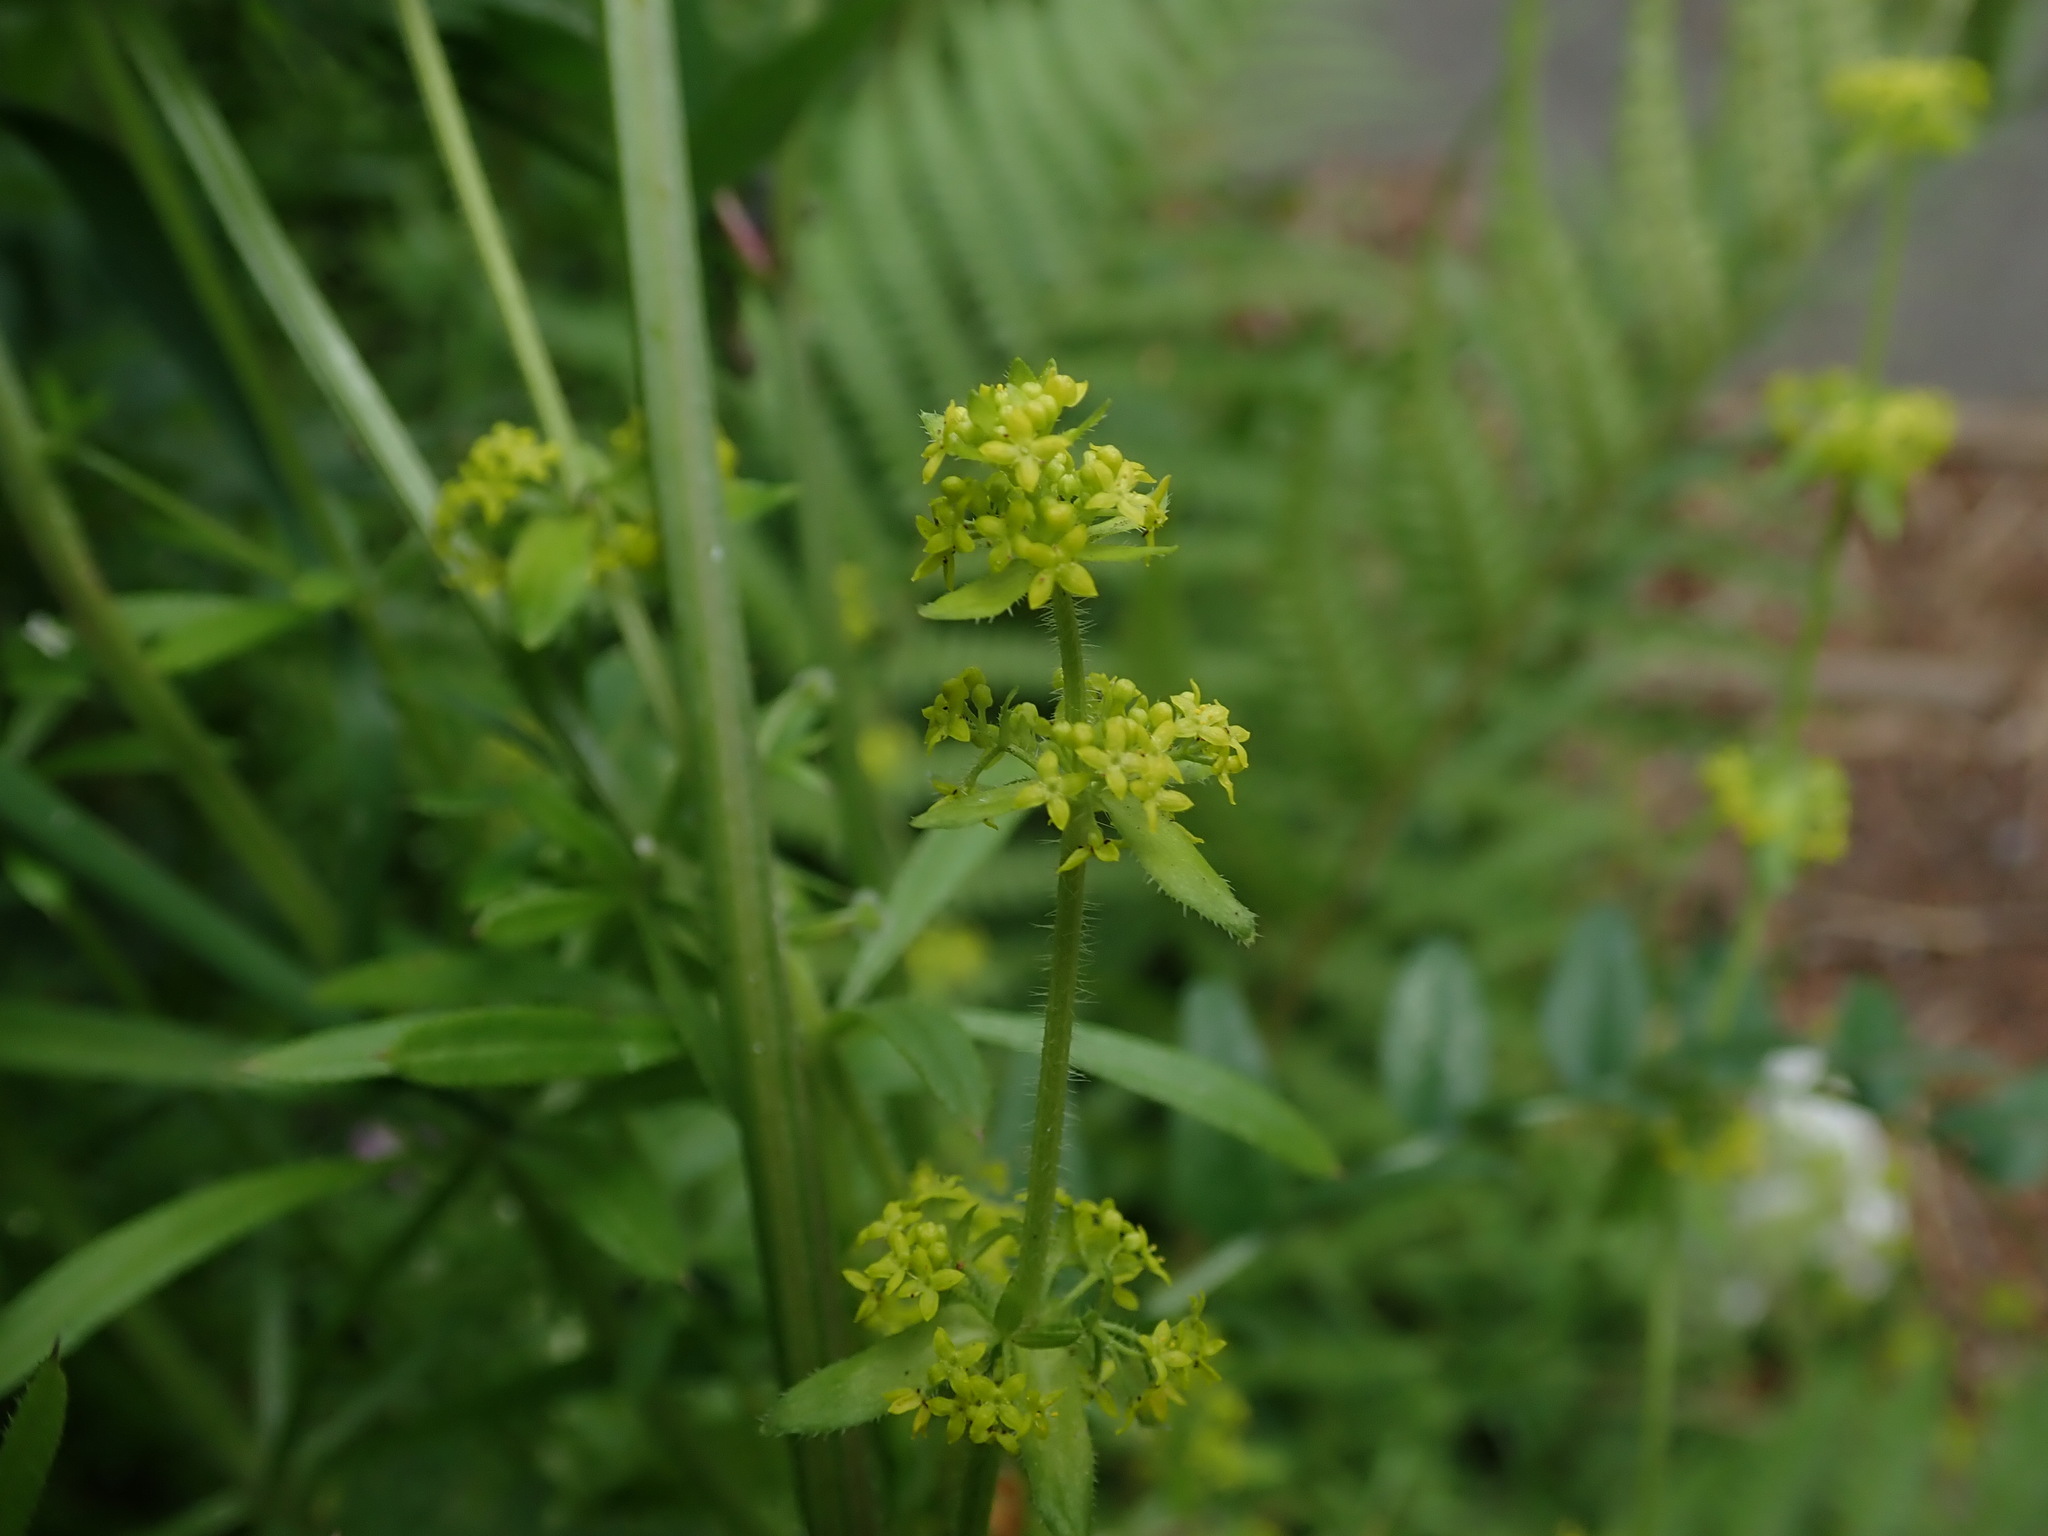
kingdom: Plantae
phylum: Tracheophyta
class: Magnoliopsida
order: Gentianales
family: Rubiaceae
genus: Cruciata
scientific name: Cruciata laevipes
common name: Crosswort
